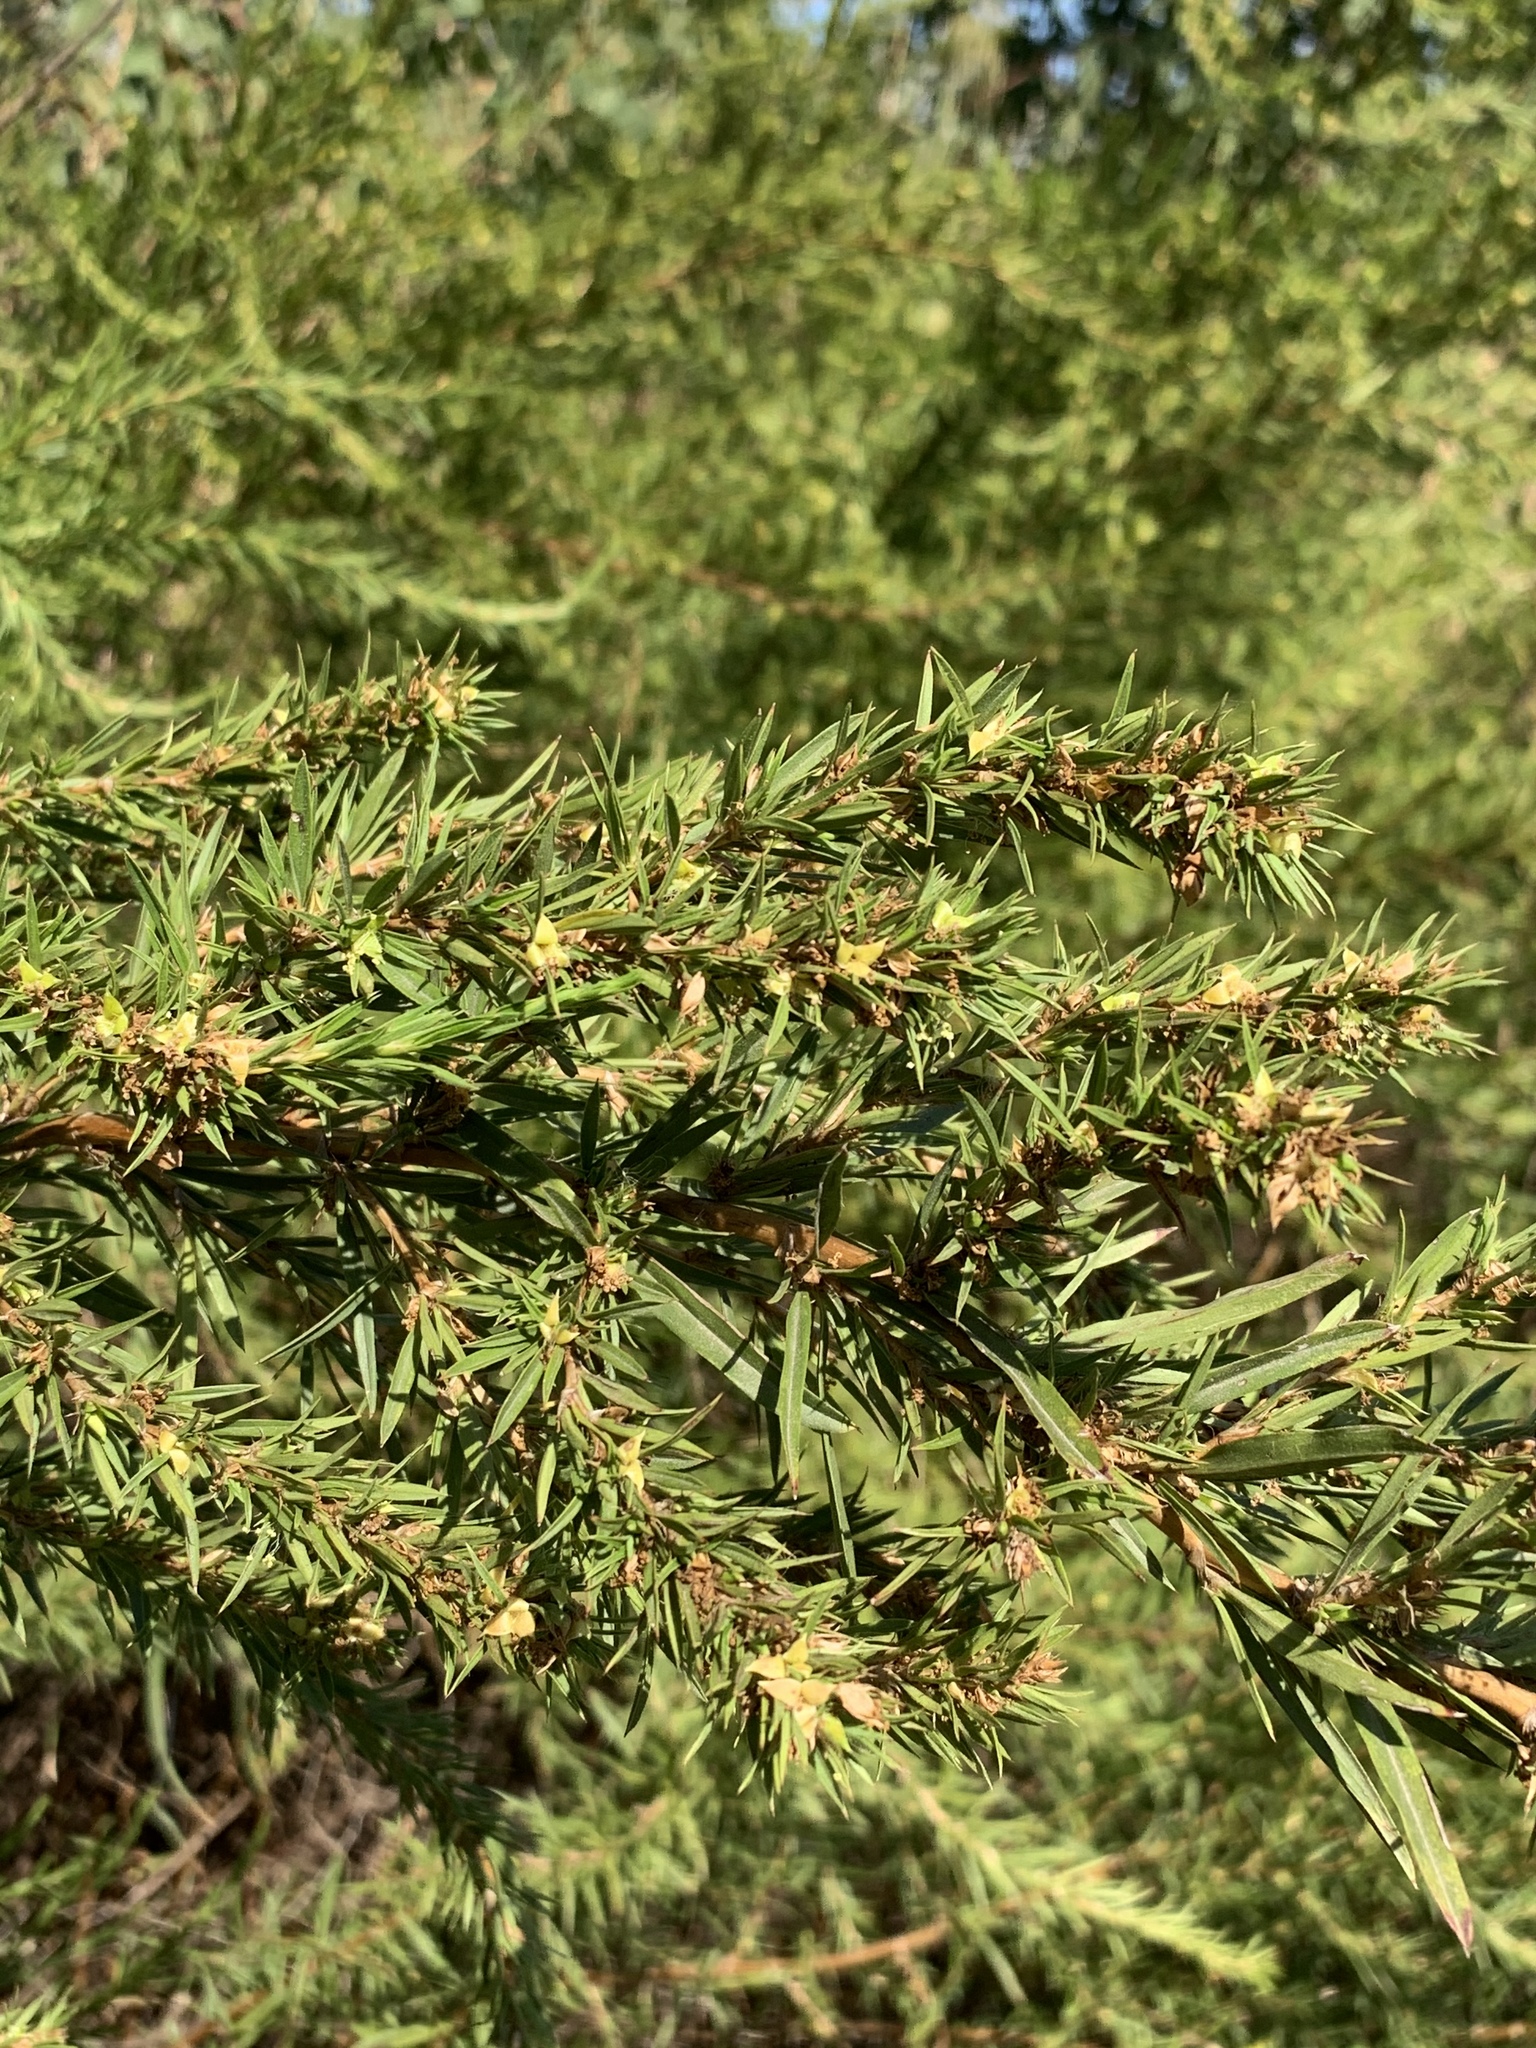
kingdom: Plantae
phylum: Tracheophyta
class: Magnoliopsida
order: Rosales
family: Rosaceae
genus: Cliffortia
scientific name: Cliffortia strobilifera
